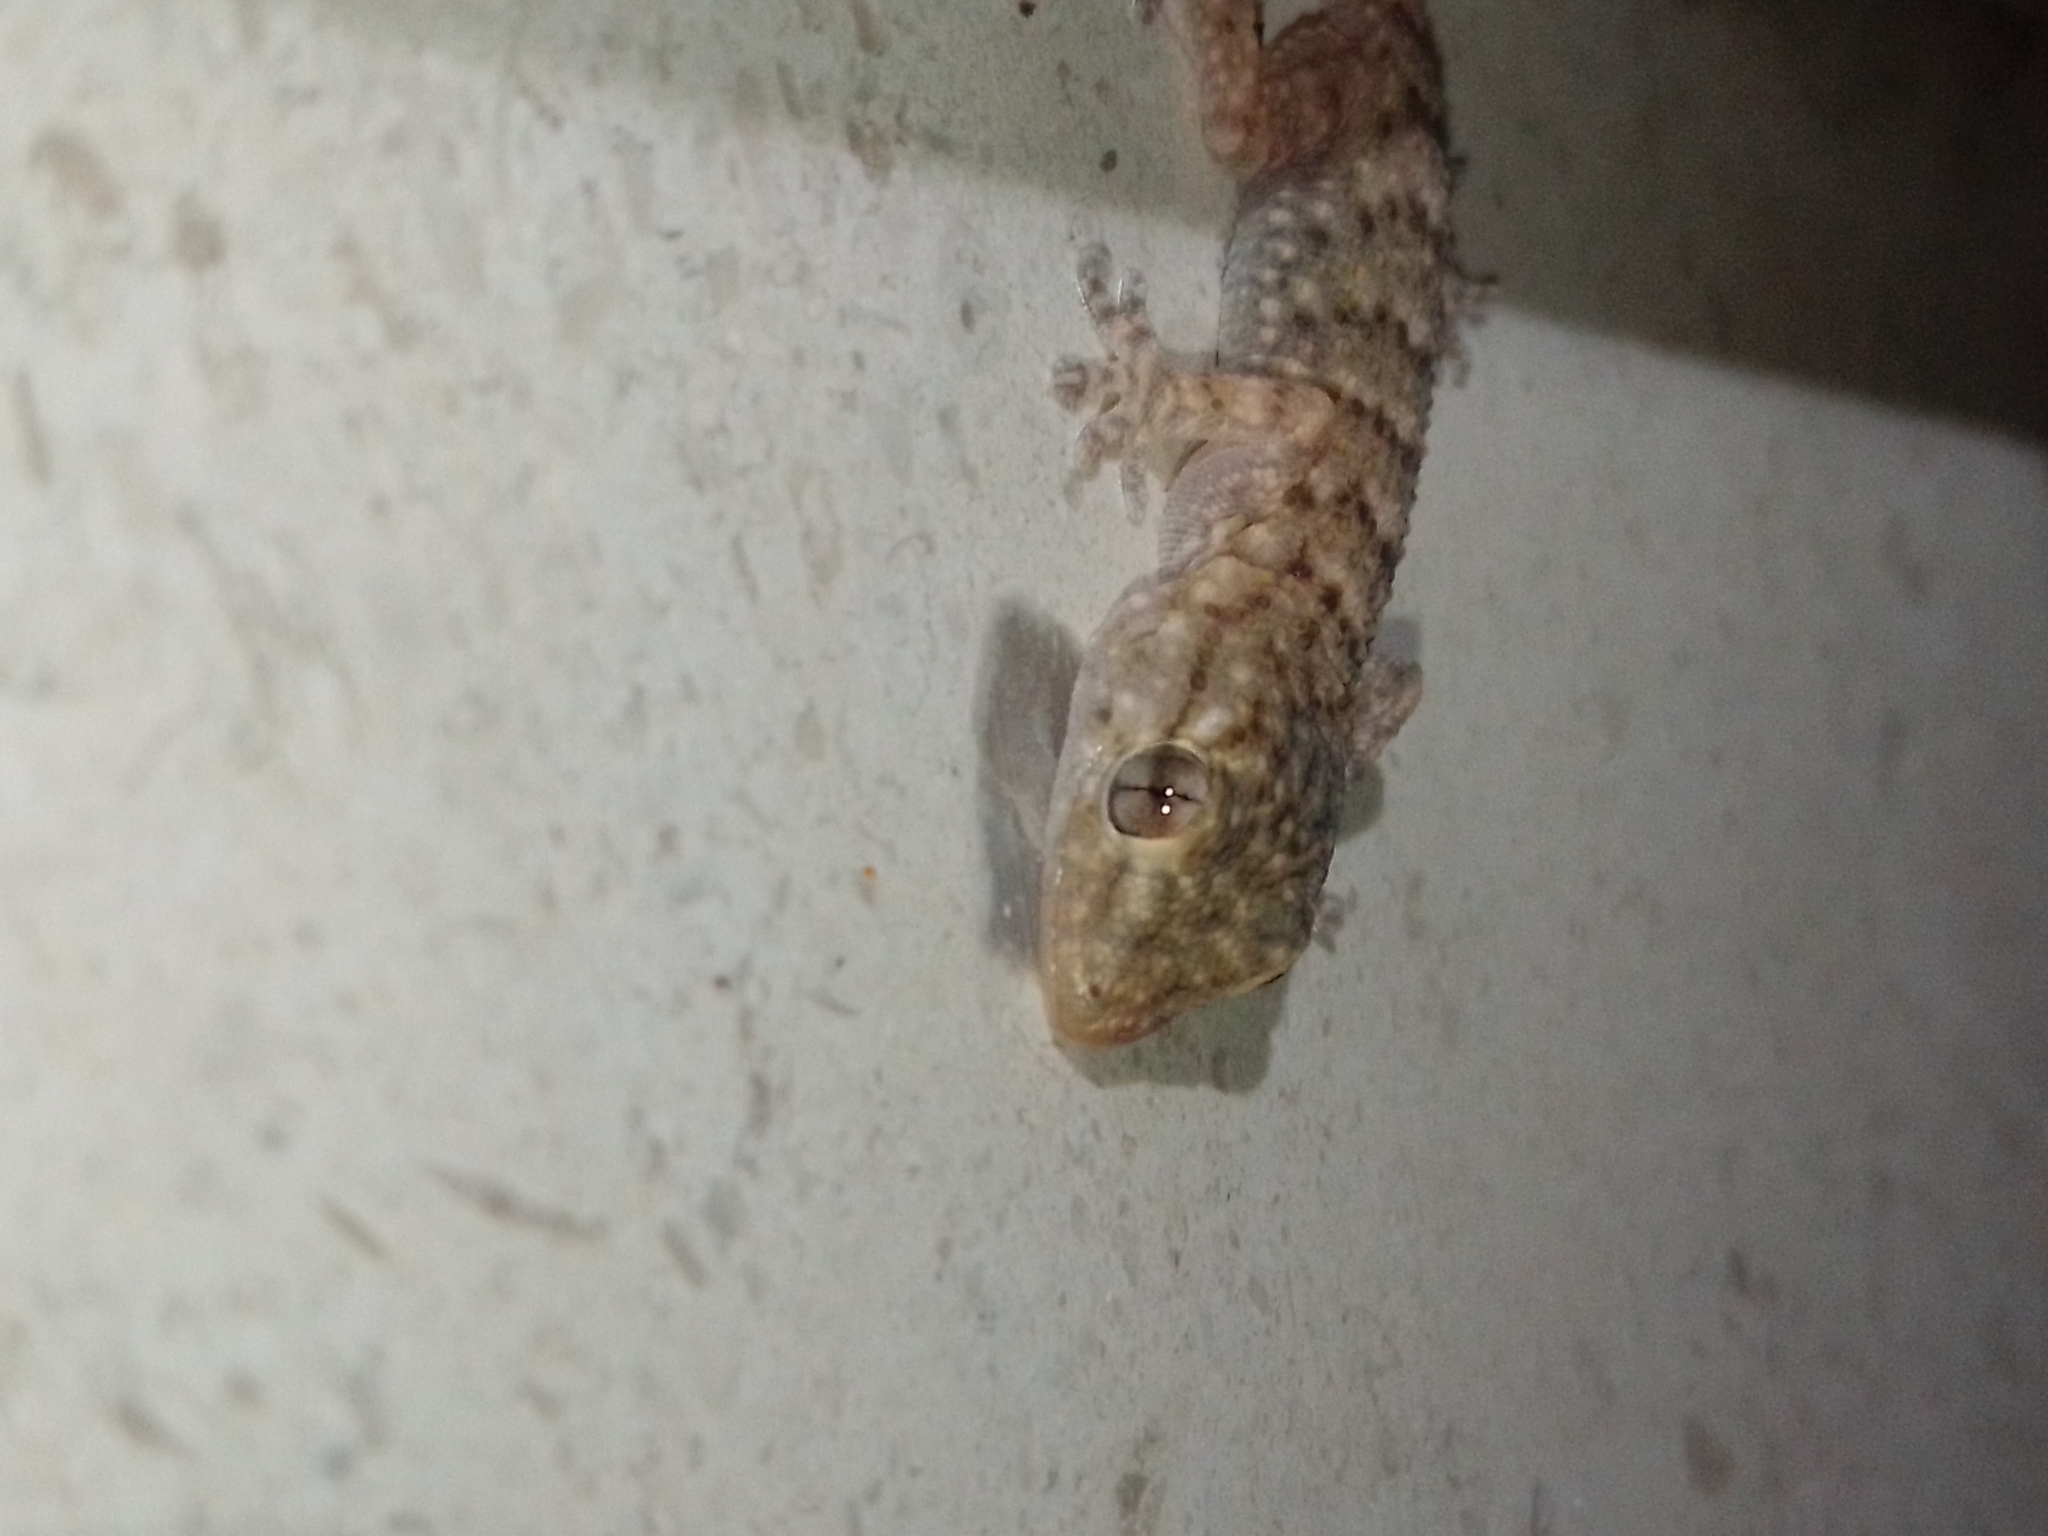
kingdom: Animalia
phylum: Chordata
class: Squamata
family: Phyllodactylidae
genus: Tarentola
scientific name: Tarentola mauritanica
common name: Moorish gecko
